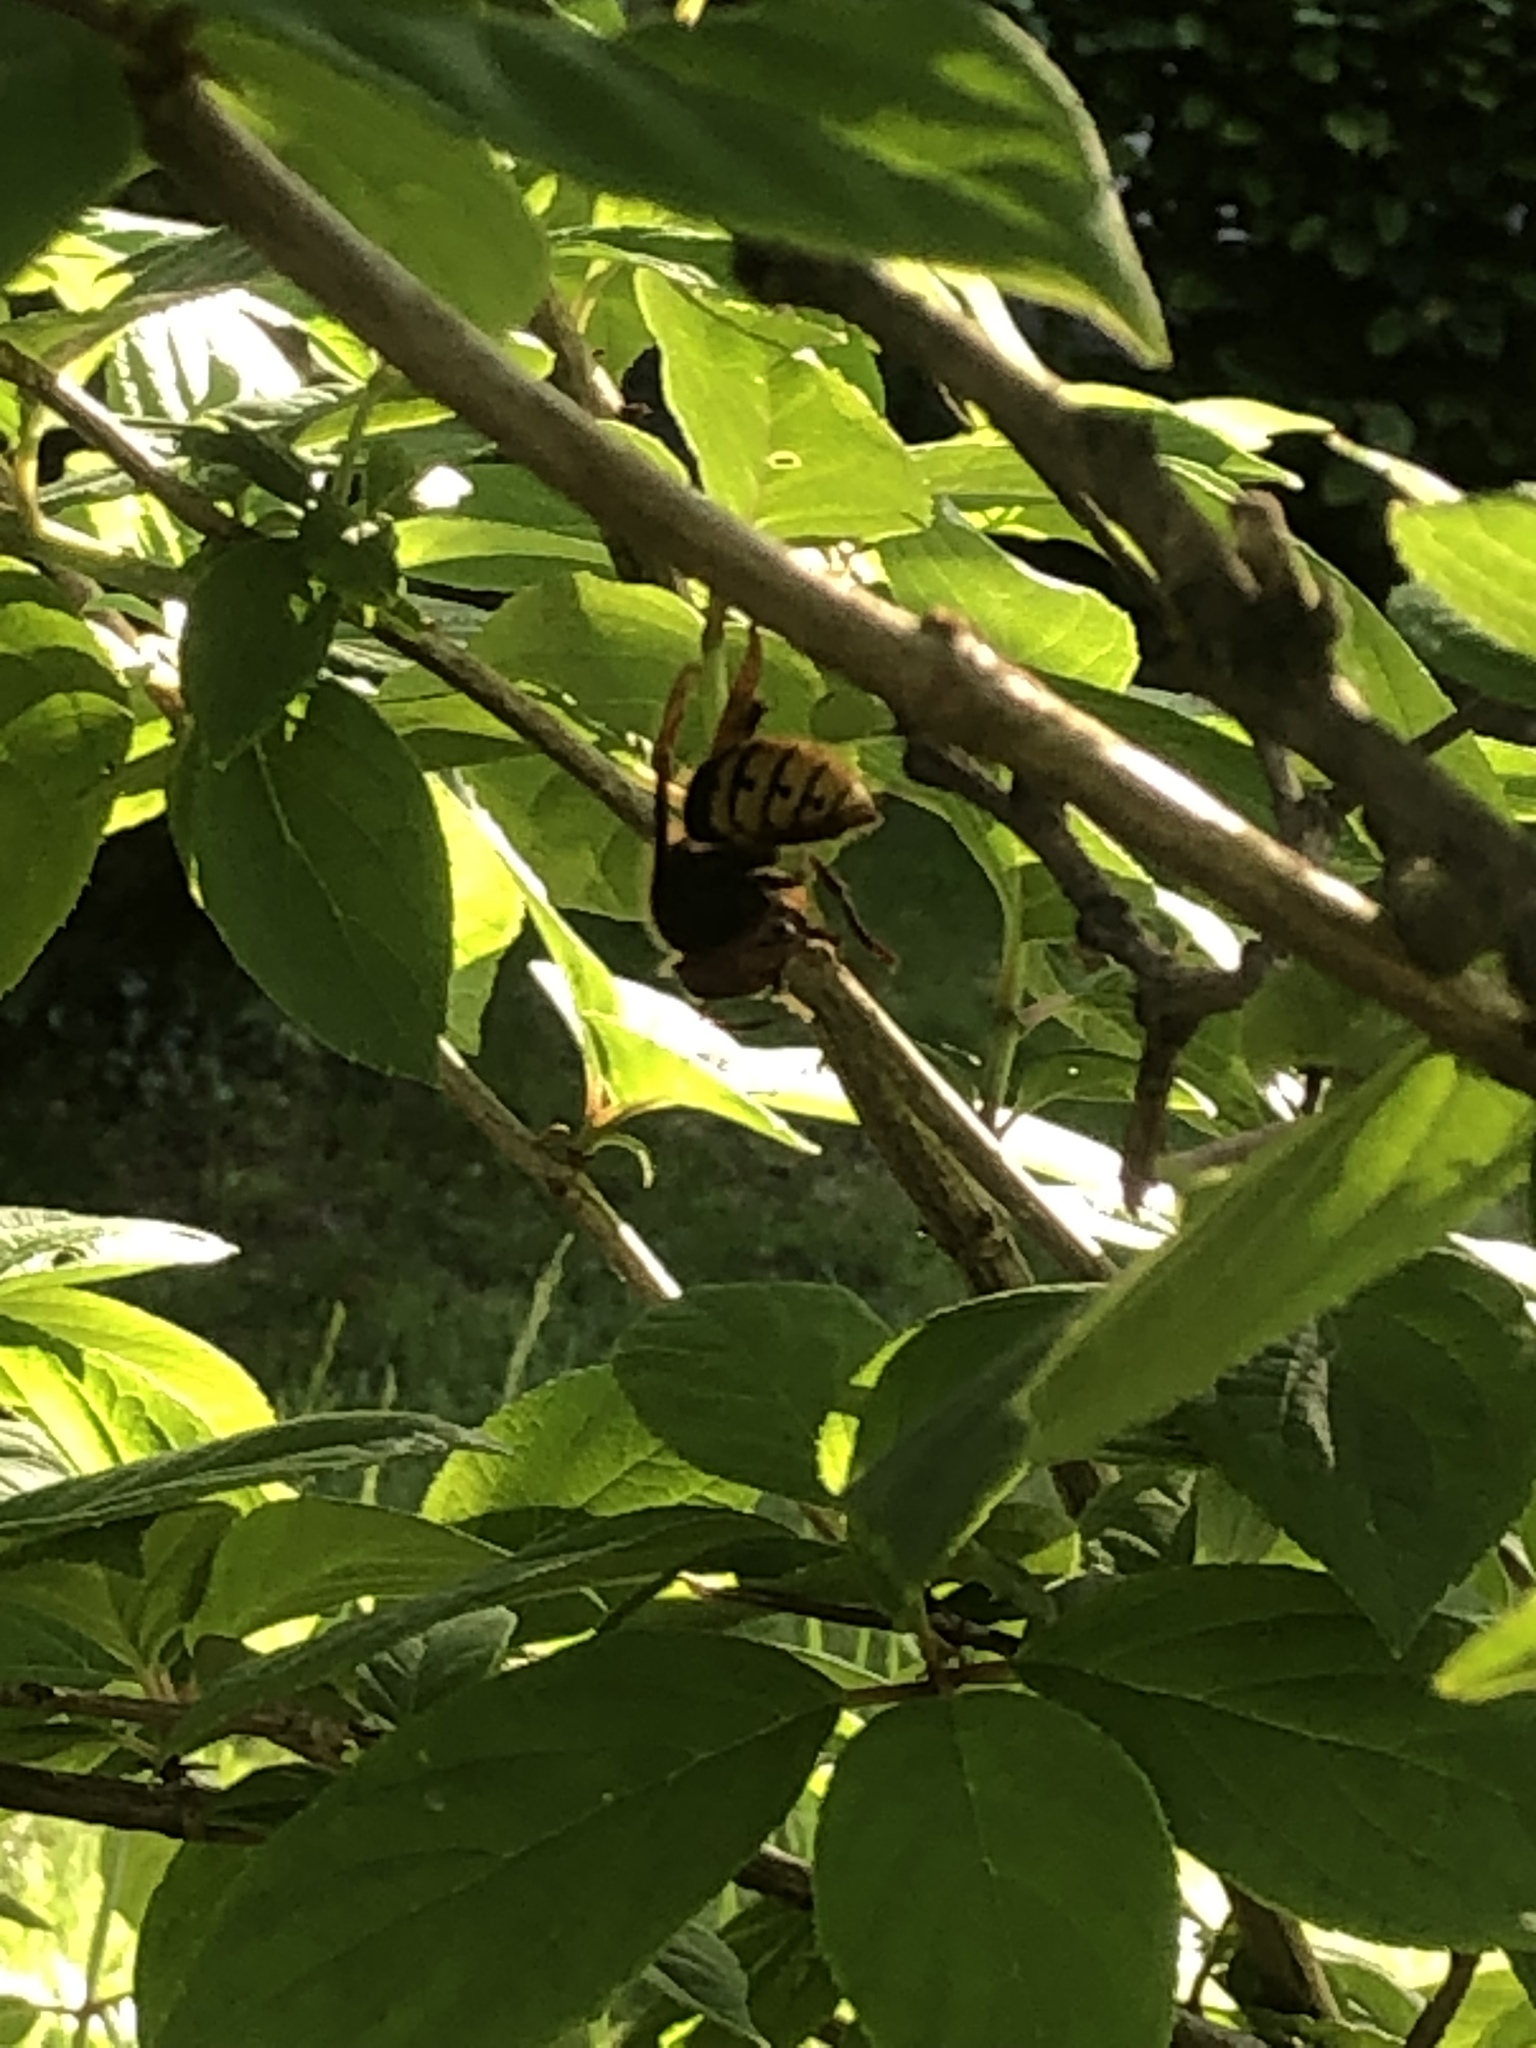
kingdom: Animalia
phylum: Arthropoda
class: Insecta
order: Hymenoptera
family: Vespidae
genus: Vespa
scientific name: Vespa crabro
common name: Hornet
